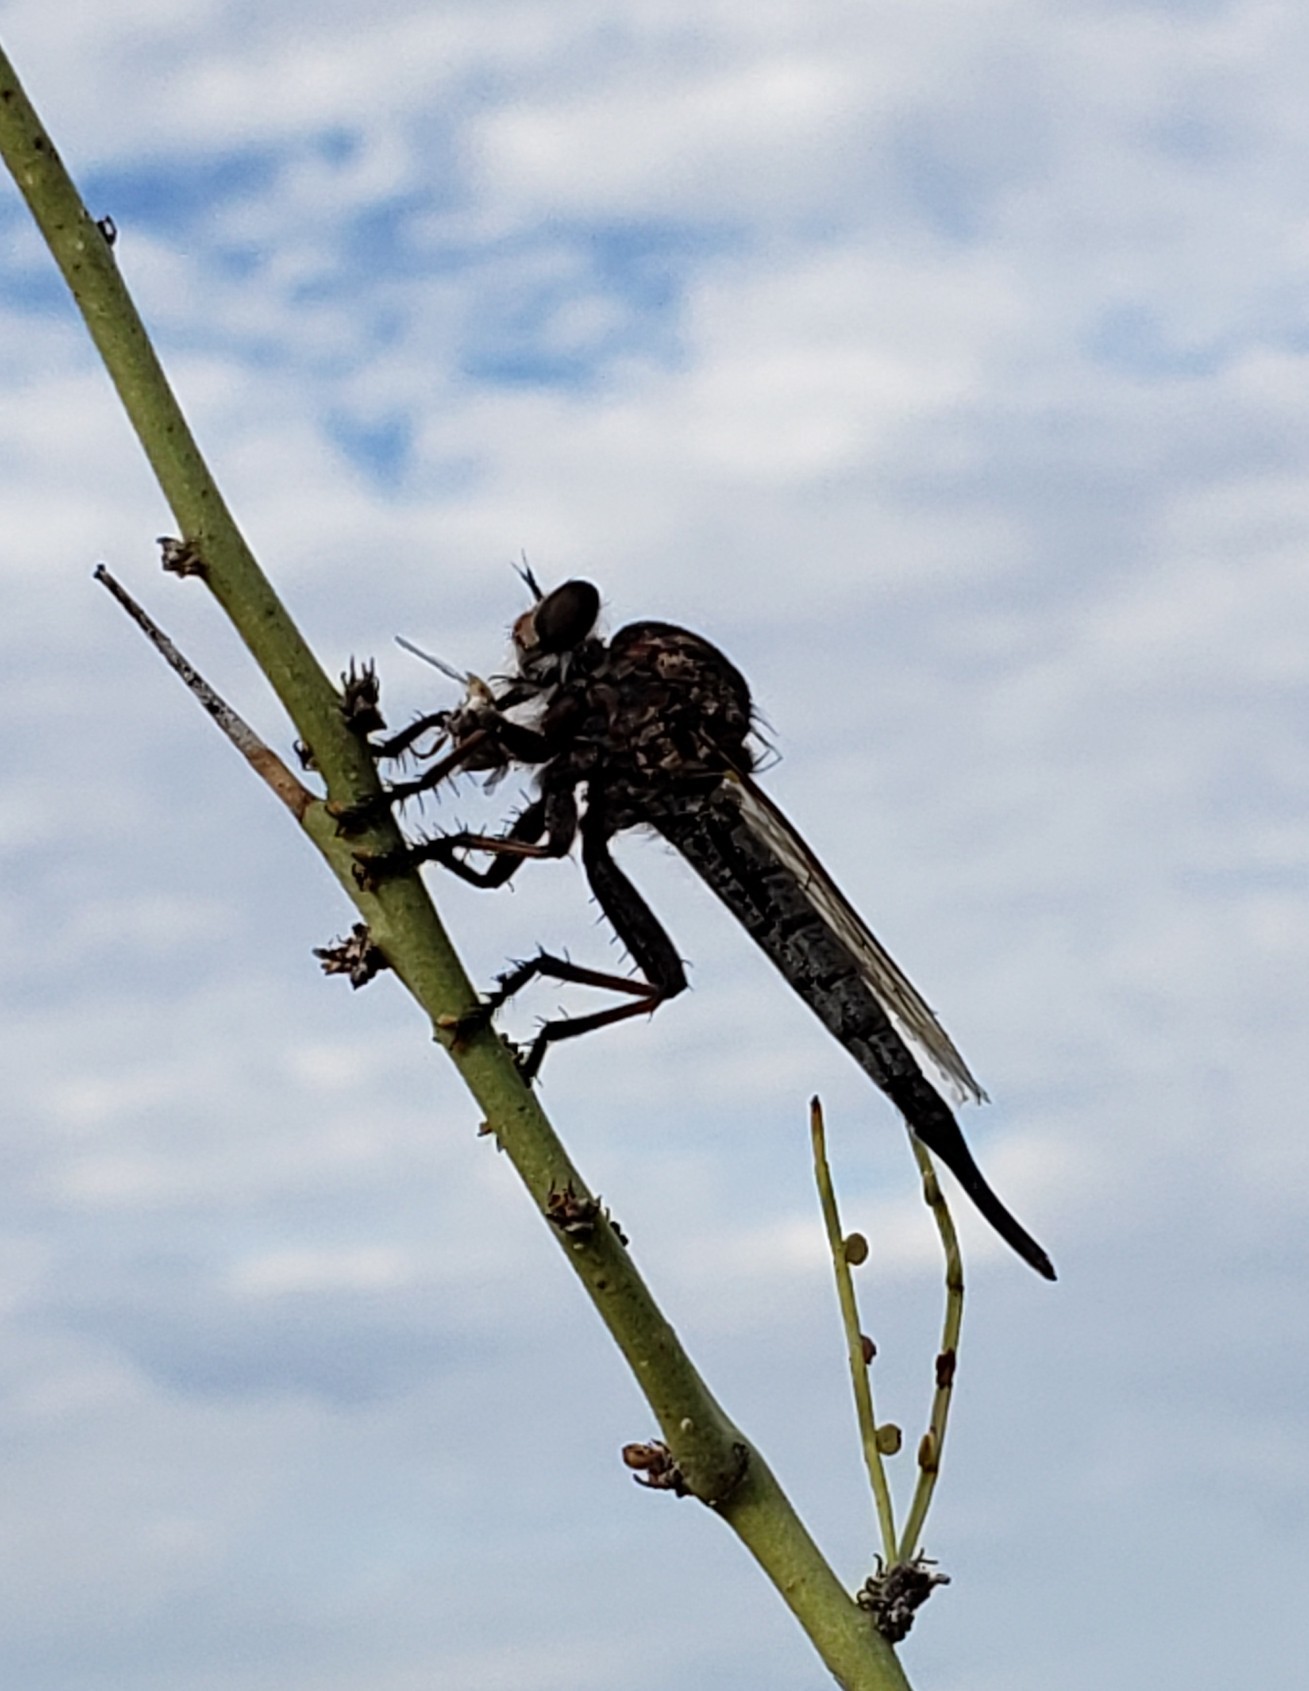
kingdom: Animalia
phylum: Arthropoda
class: Insecta
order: Diptera
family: Asilidae
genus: Efferia
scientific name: Efferia
